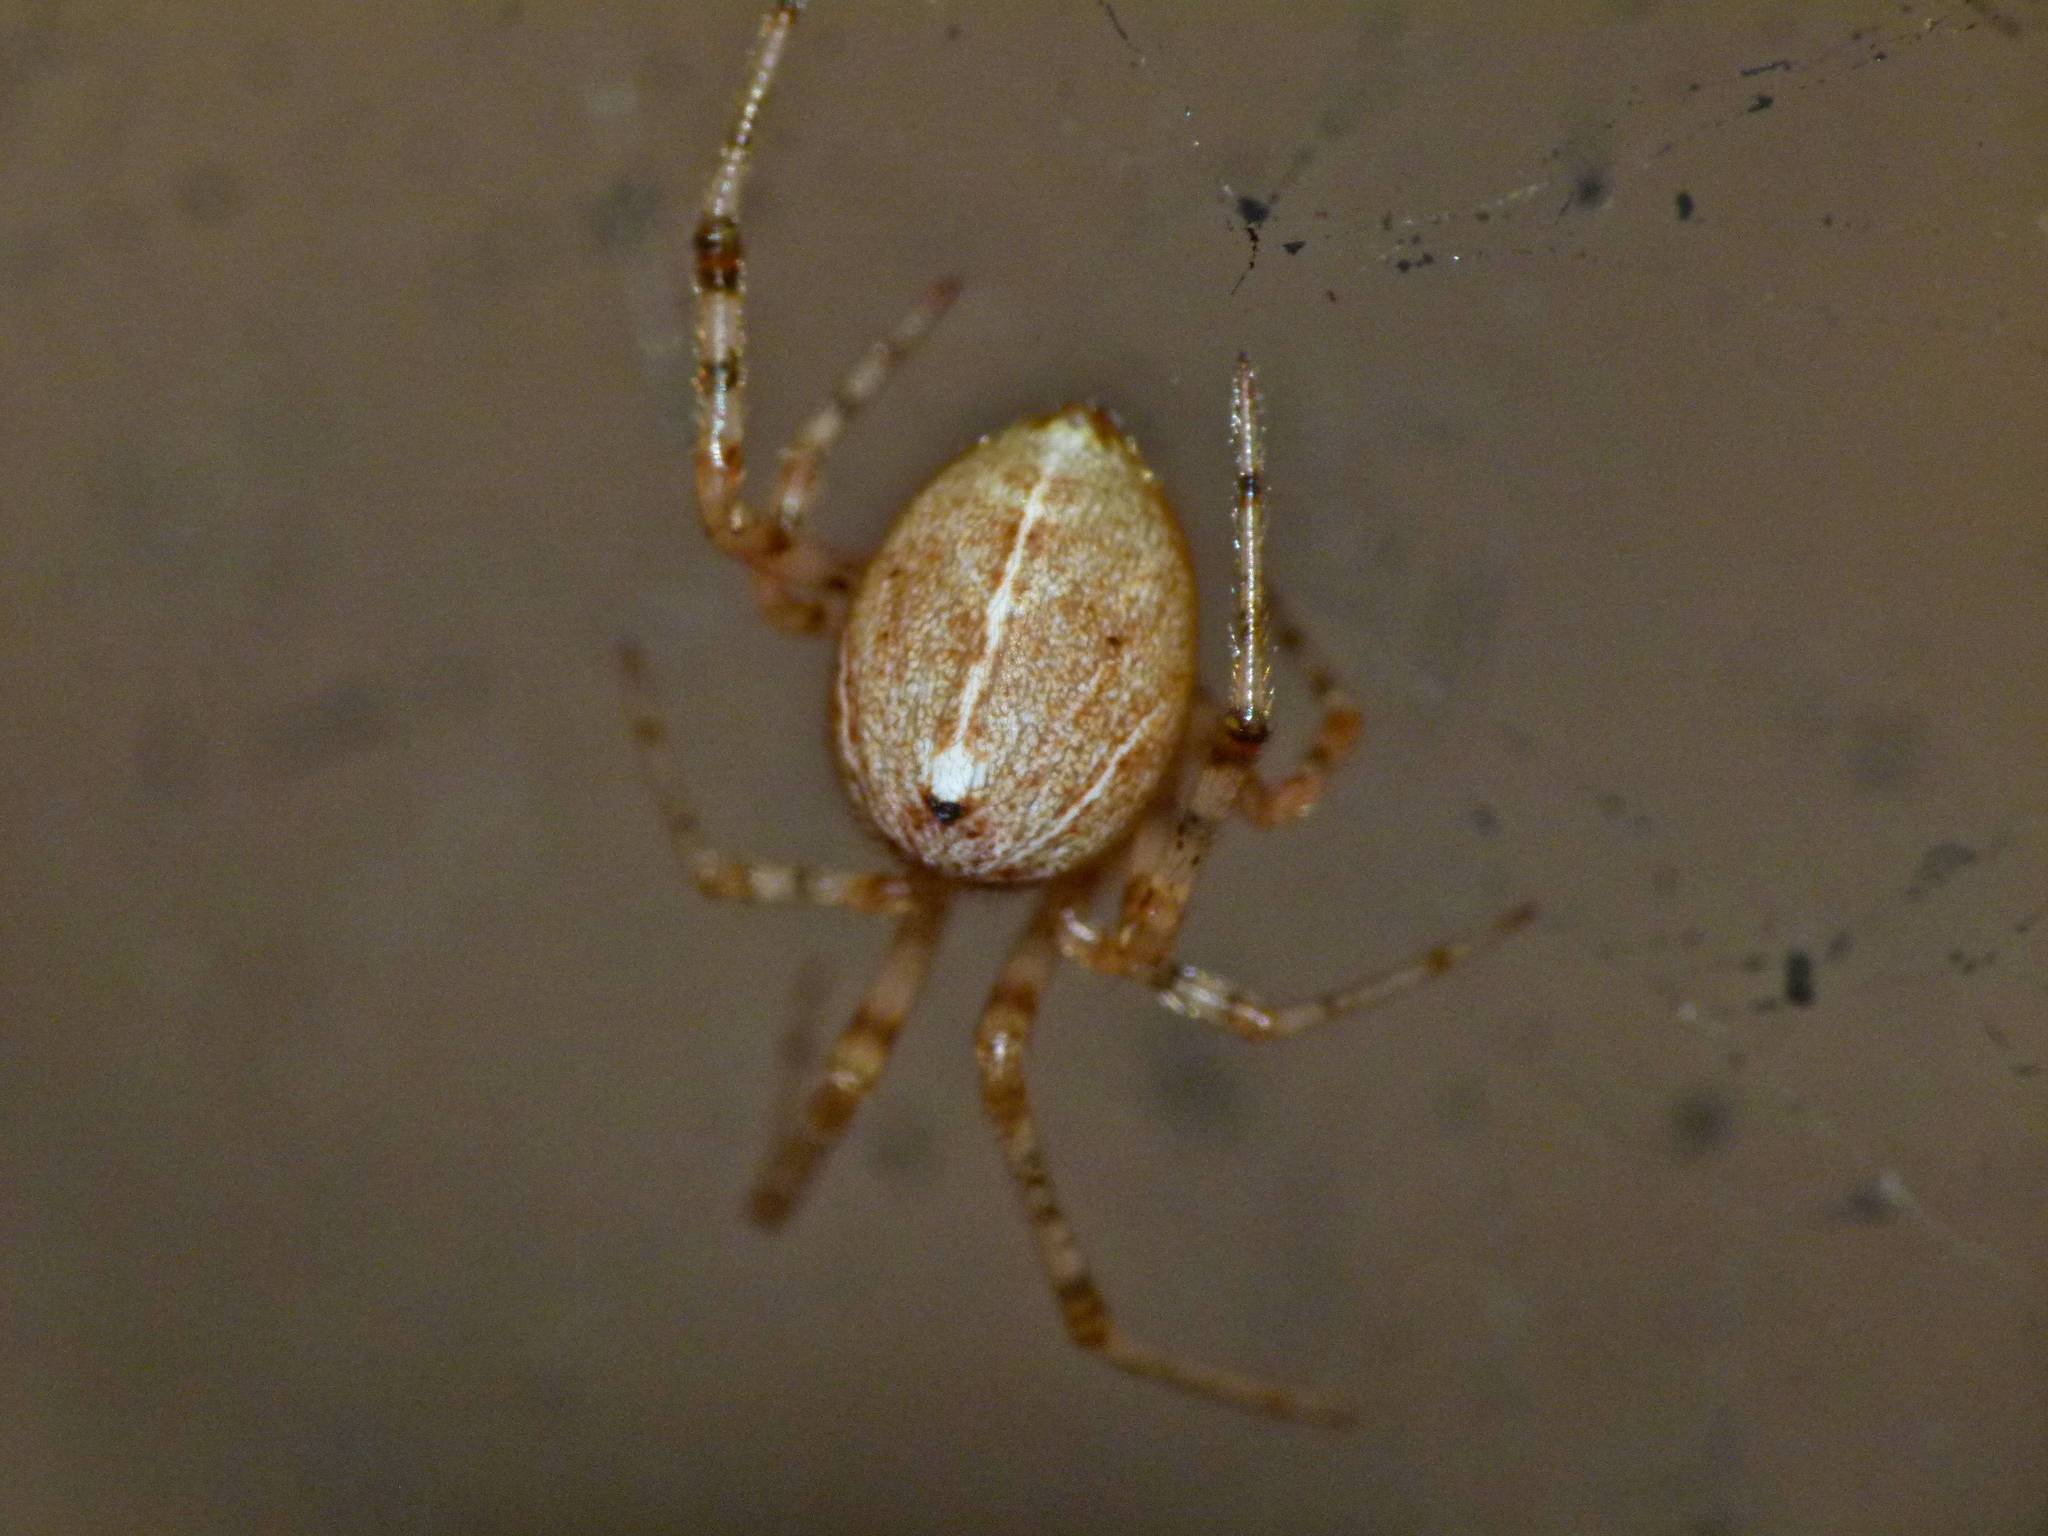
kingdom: Animalia
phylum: Arthropoda
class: Arachnida
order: Araneae
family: Theridiidae
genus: Parasteatoda
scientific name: Parasteatoda tepidariorum
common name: Common house spider
